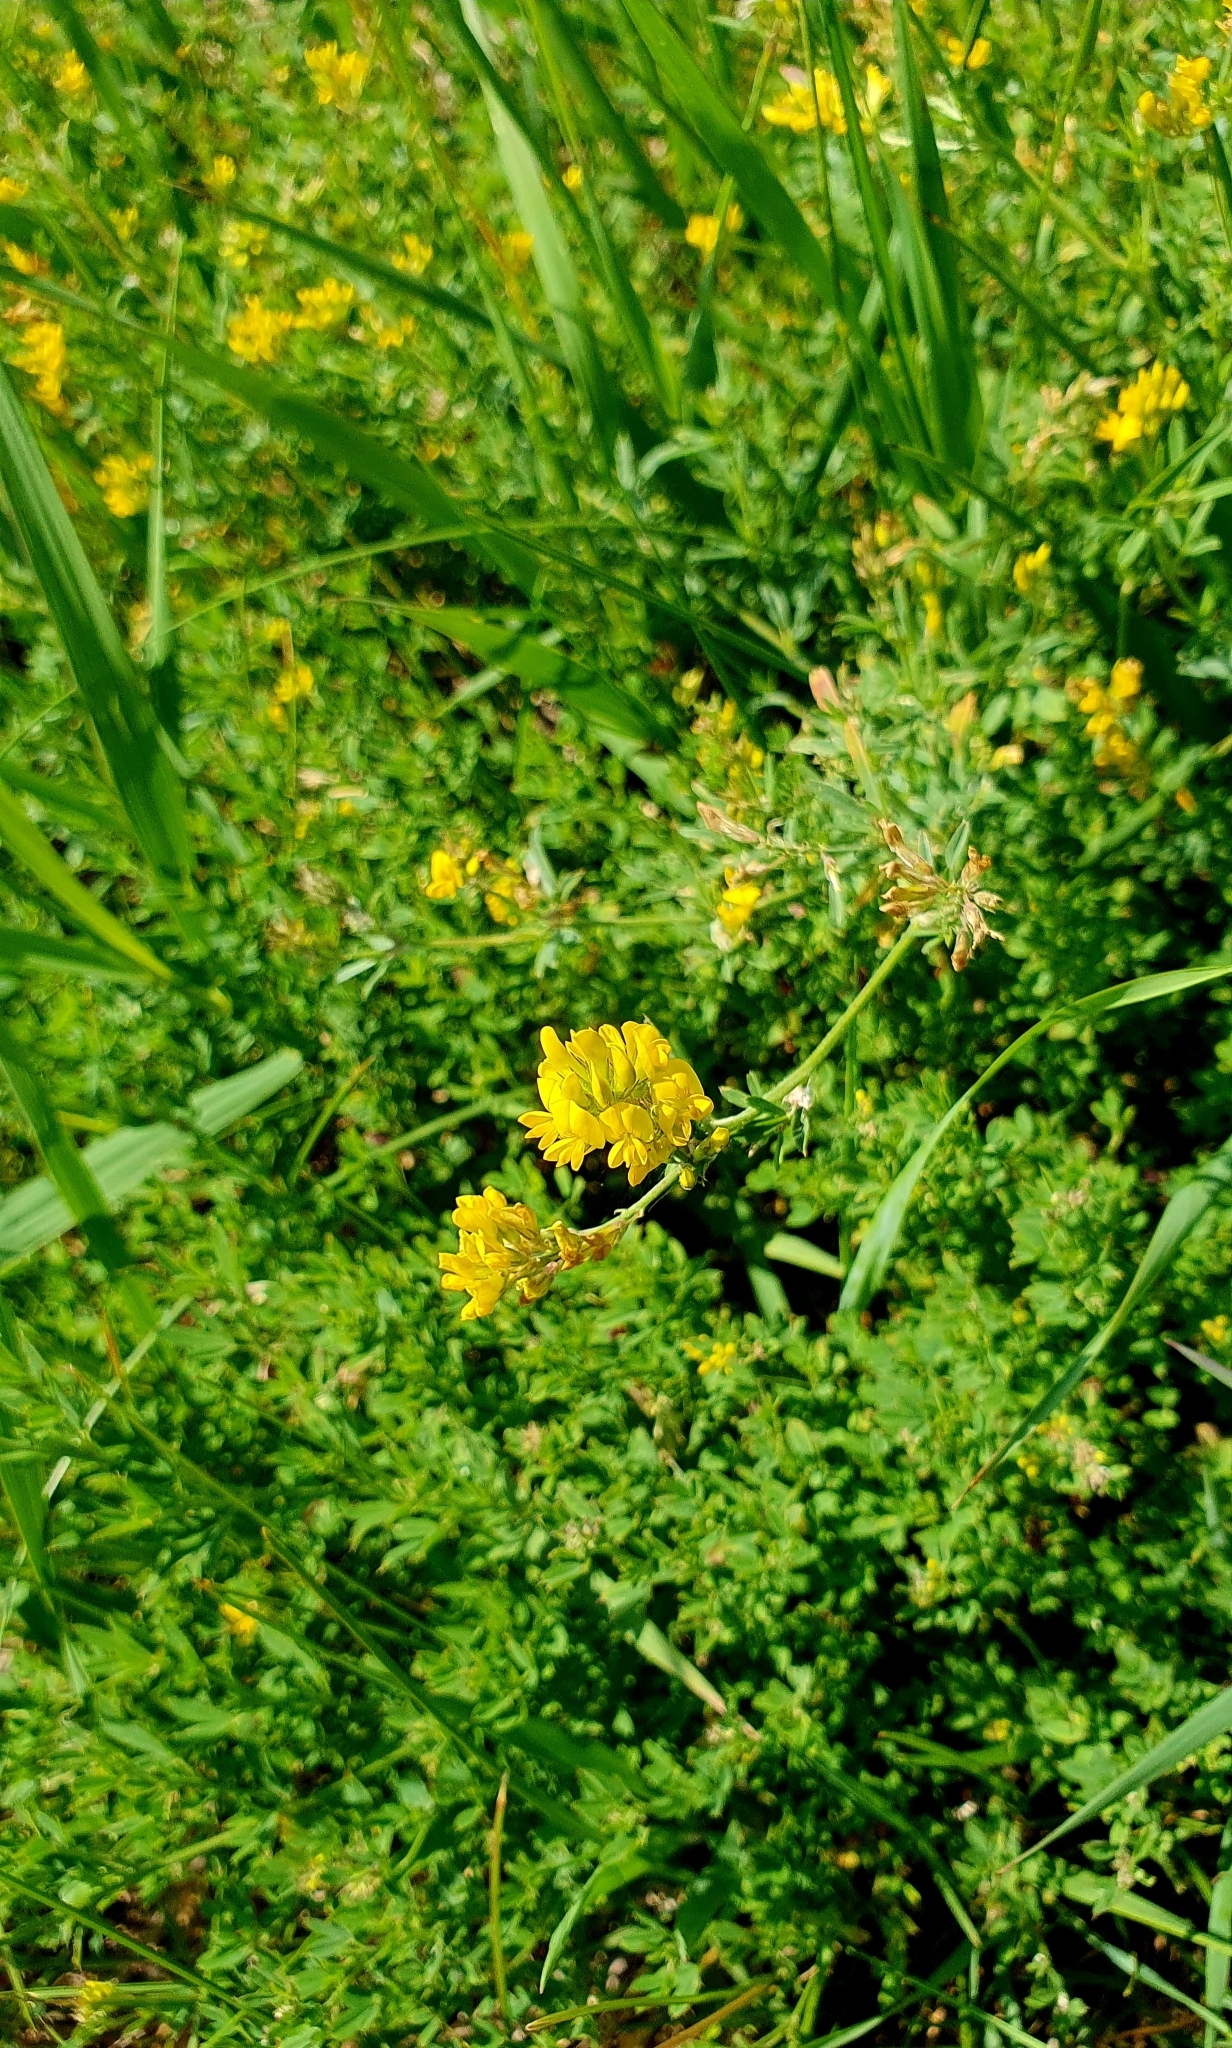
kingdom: Plantae
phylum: Tracheophyta
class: Magnoliopsida
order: Fabales
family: Fabaceae
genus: Medicago
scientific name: Medicago falcata
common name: Sickle medick
